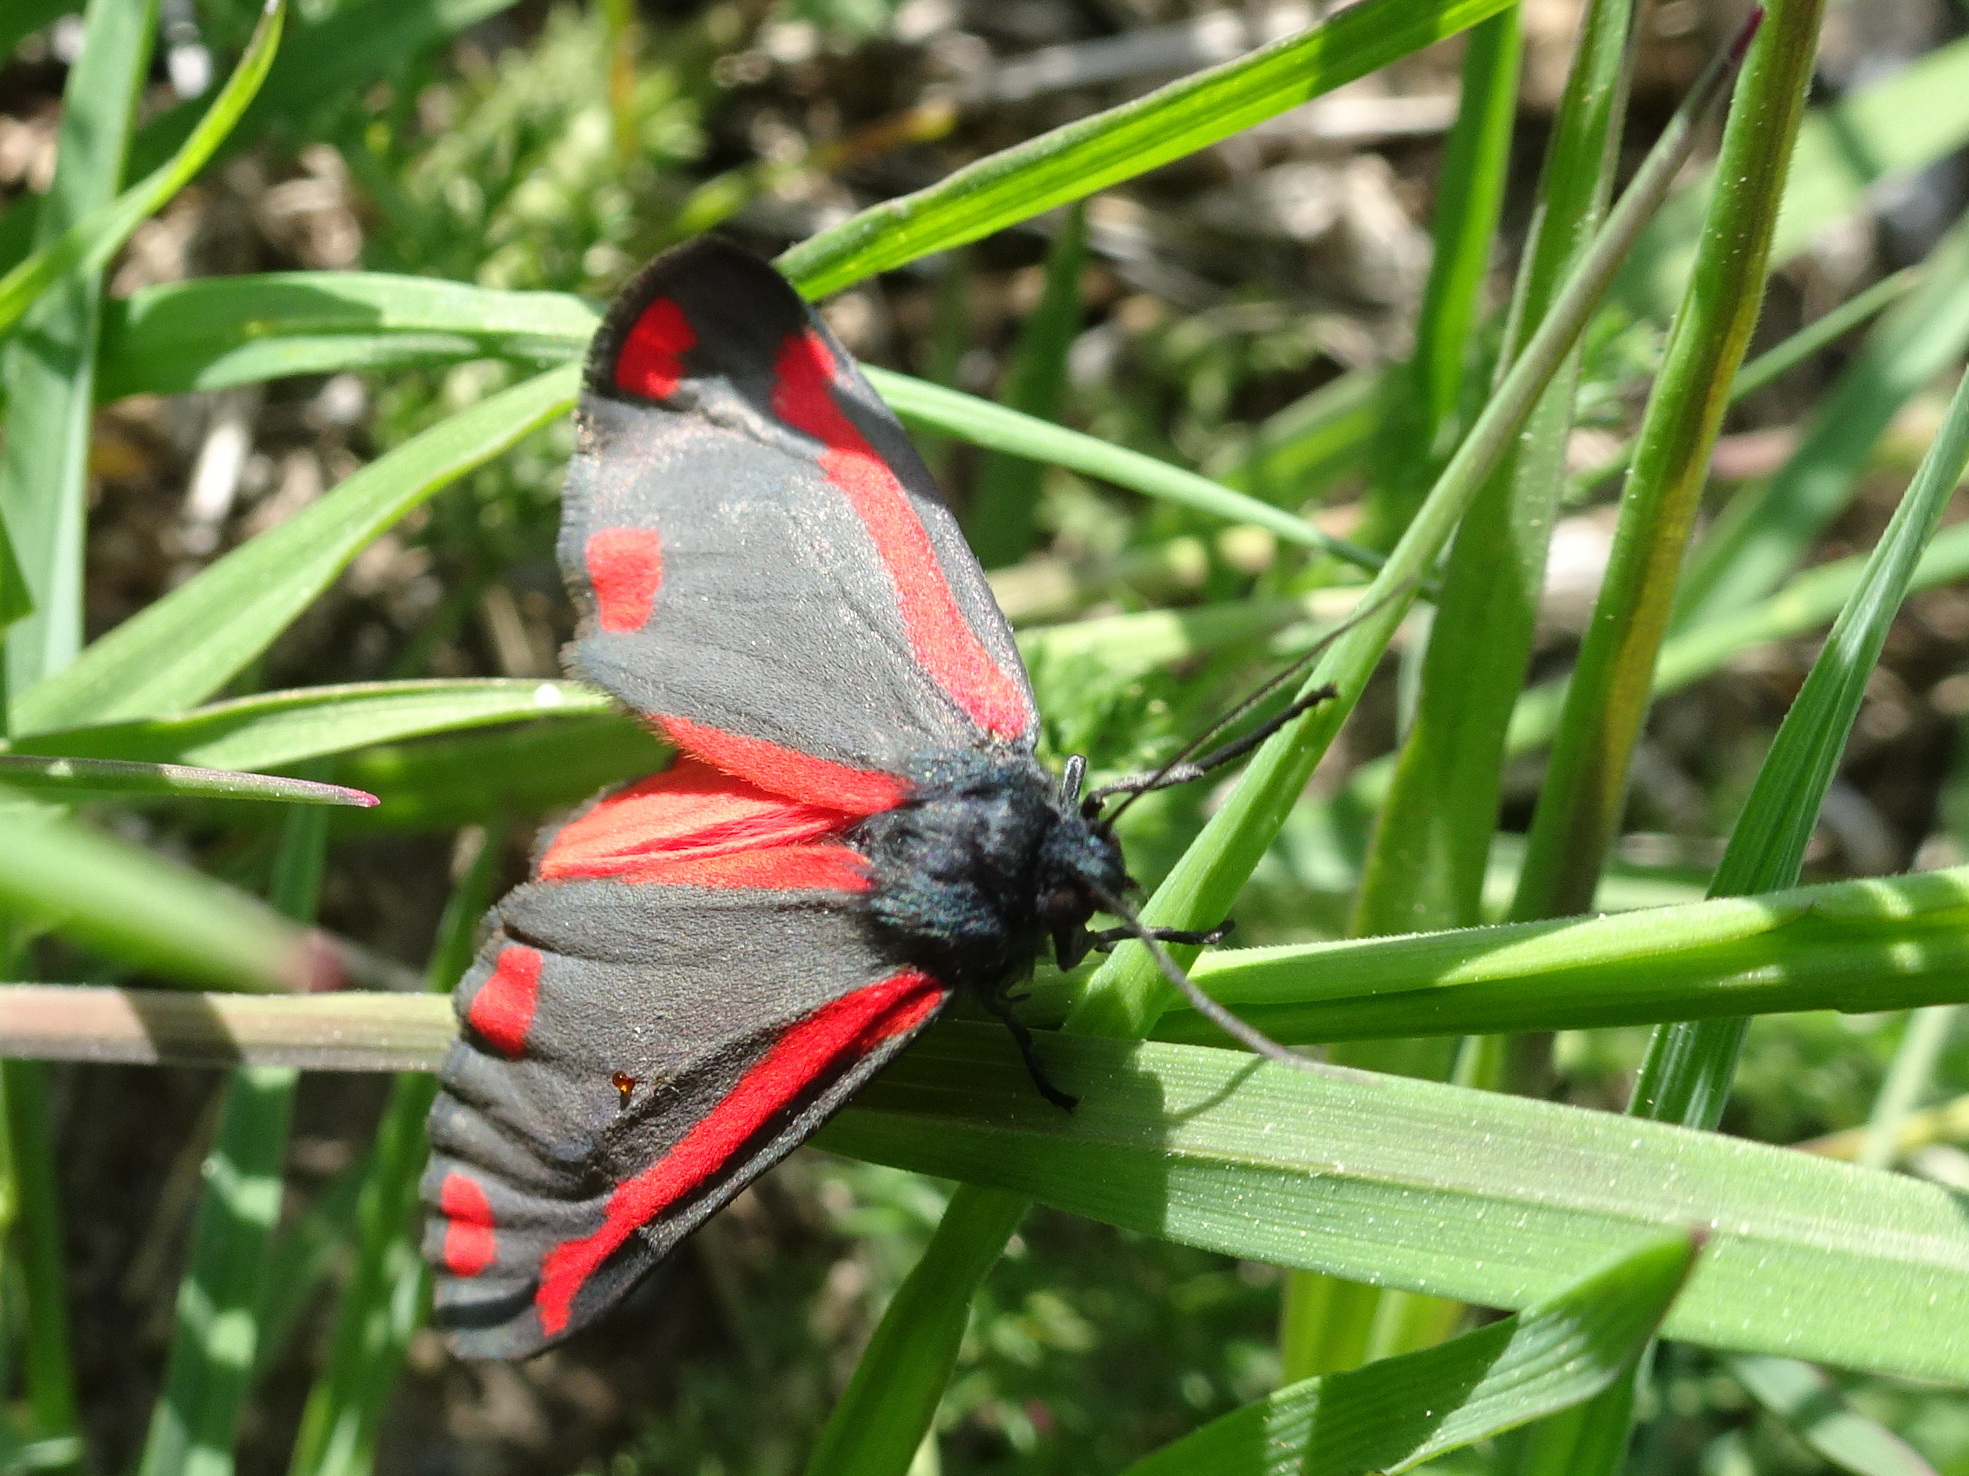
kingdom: Animalia
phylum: Arthropoda
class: Insecta
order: Lepidoptera
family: Erebidae
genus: Tyria
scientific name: Tyria jacobaeae
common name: Cinnabar
